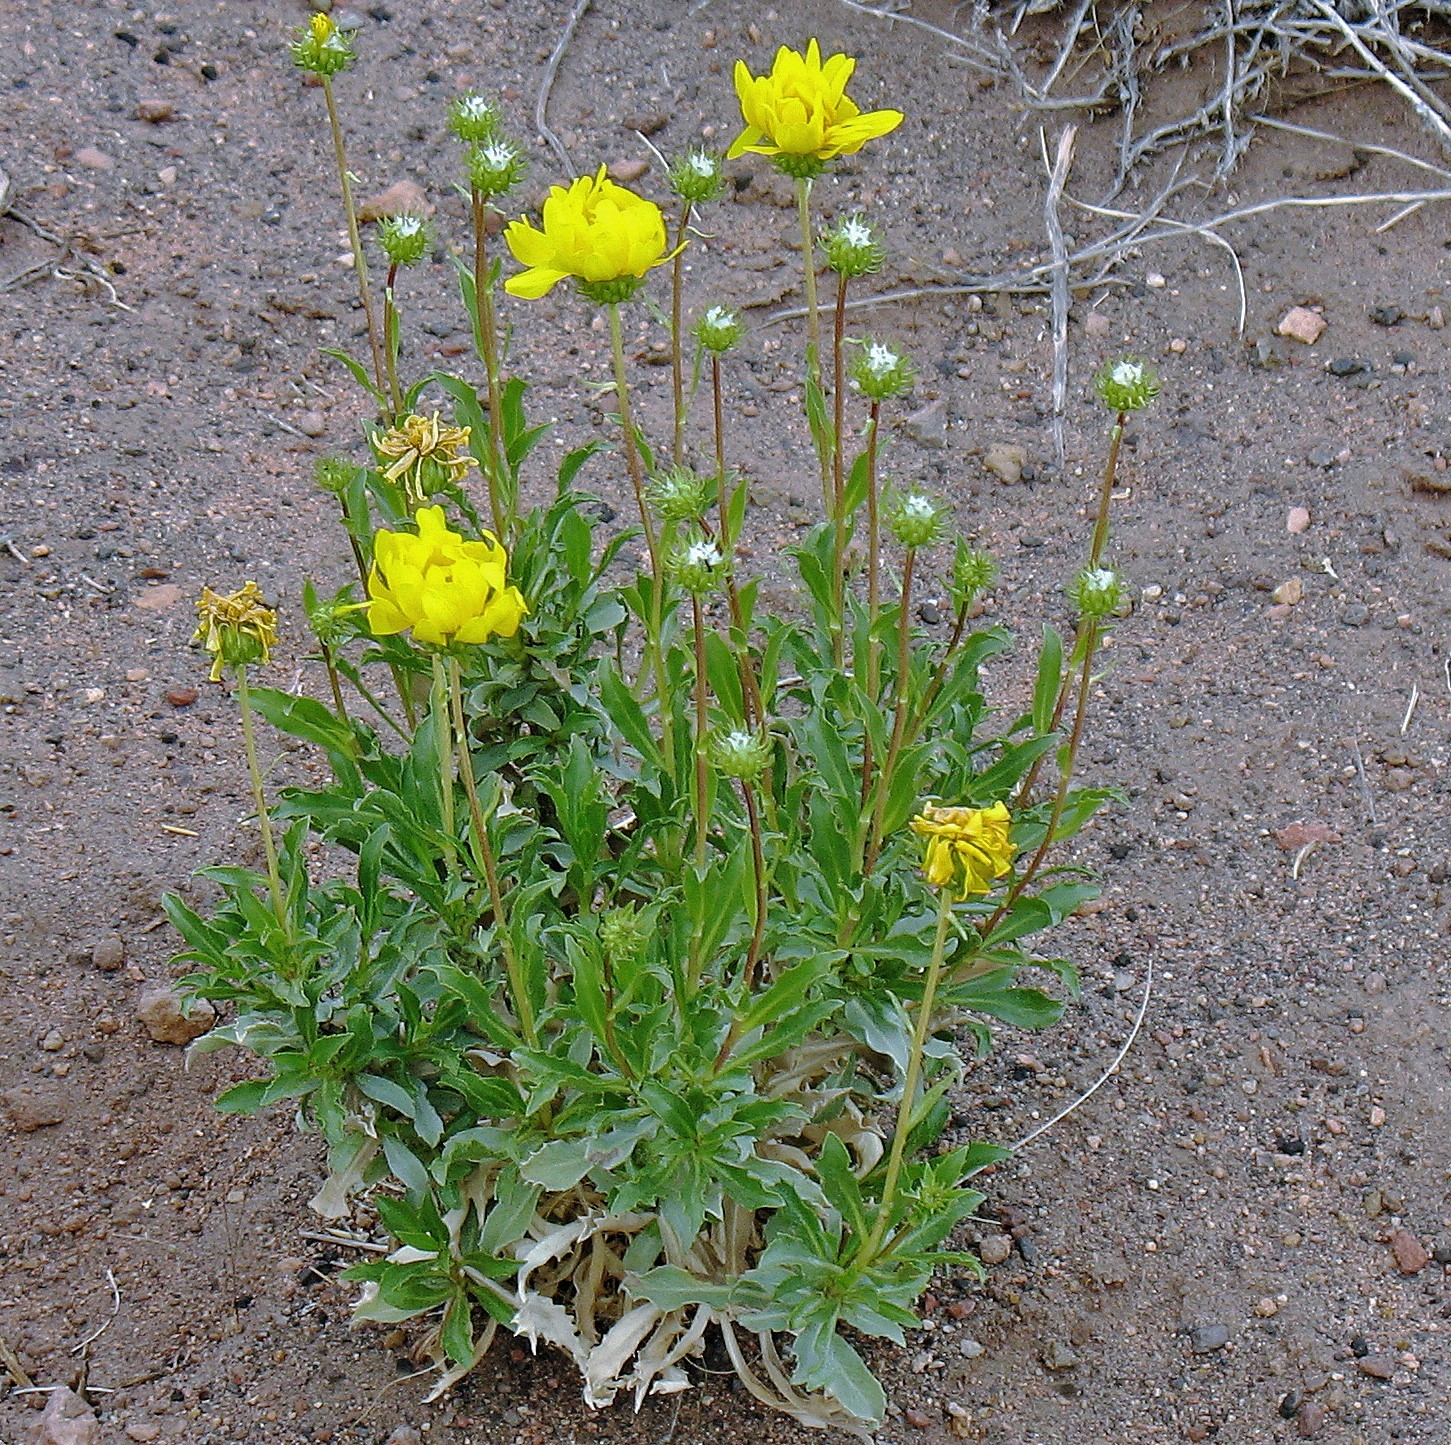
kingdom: Plantae
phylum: Tracheophyta
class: Magnoliopsida
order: Asterales
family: Asteraceae
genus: Grindelia
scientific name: Grindelia chiloensis
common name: Shrubby gumweed
